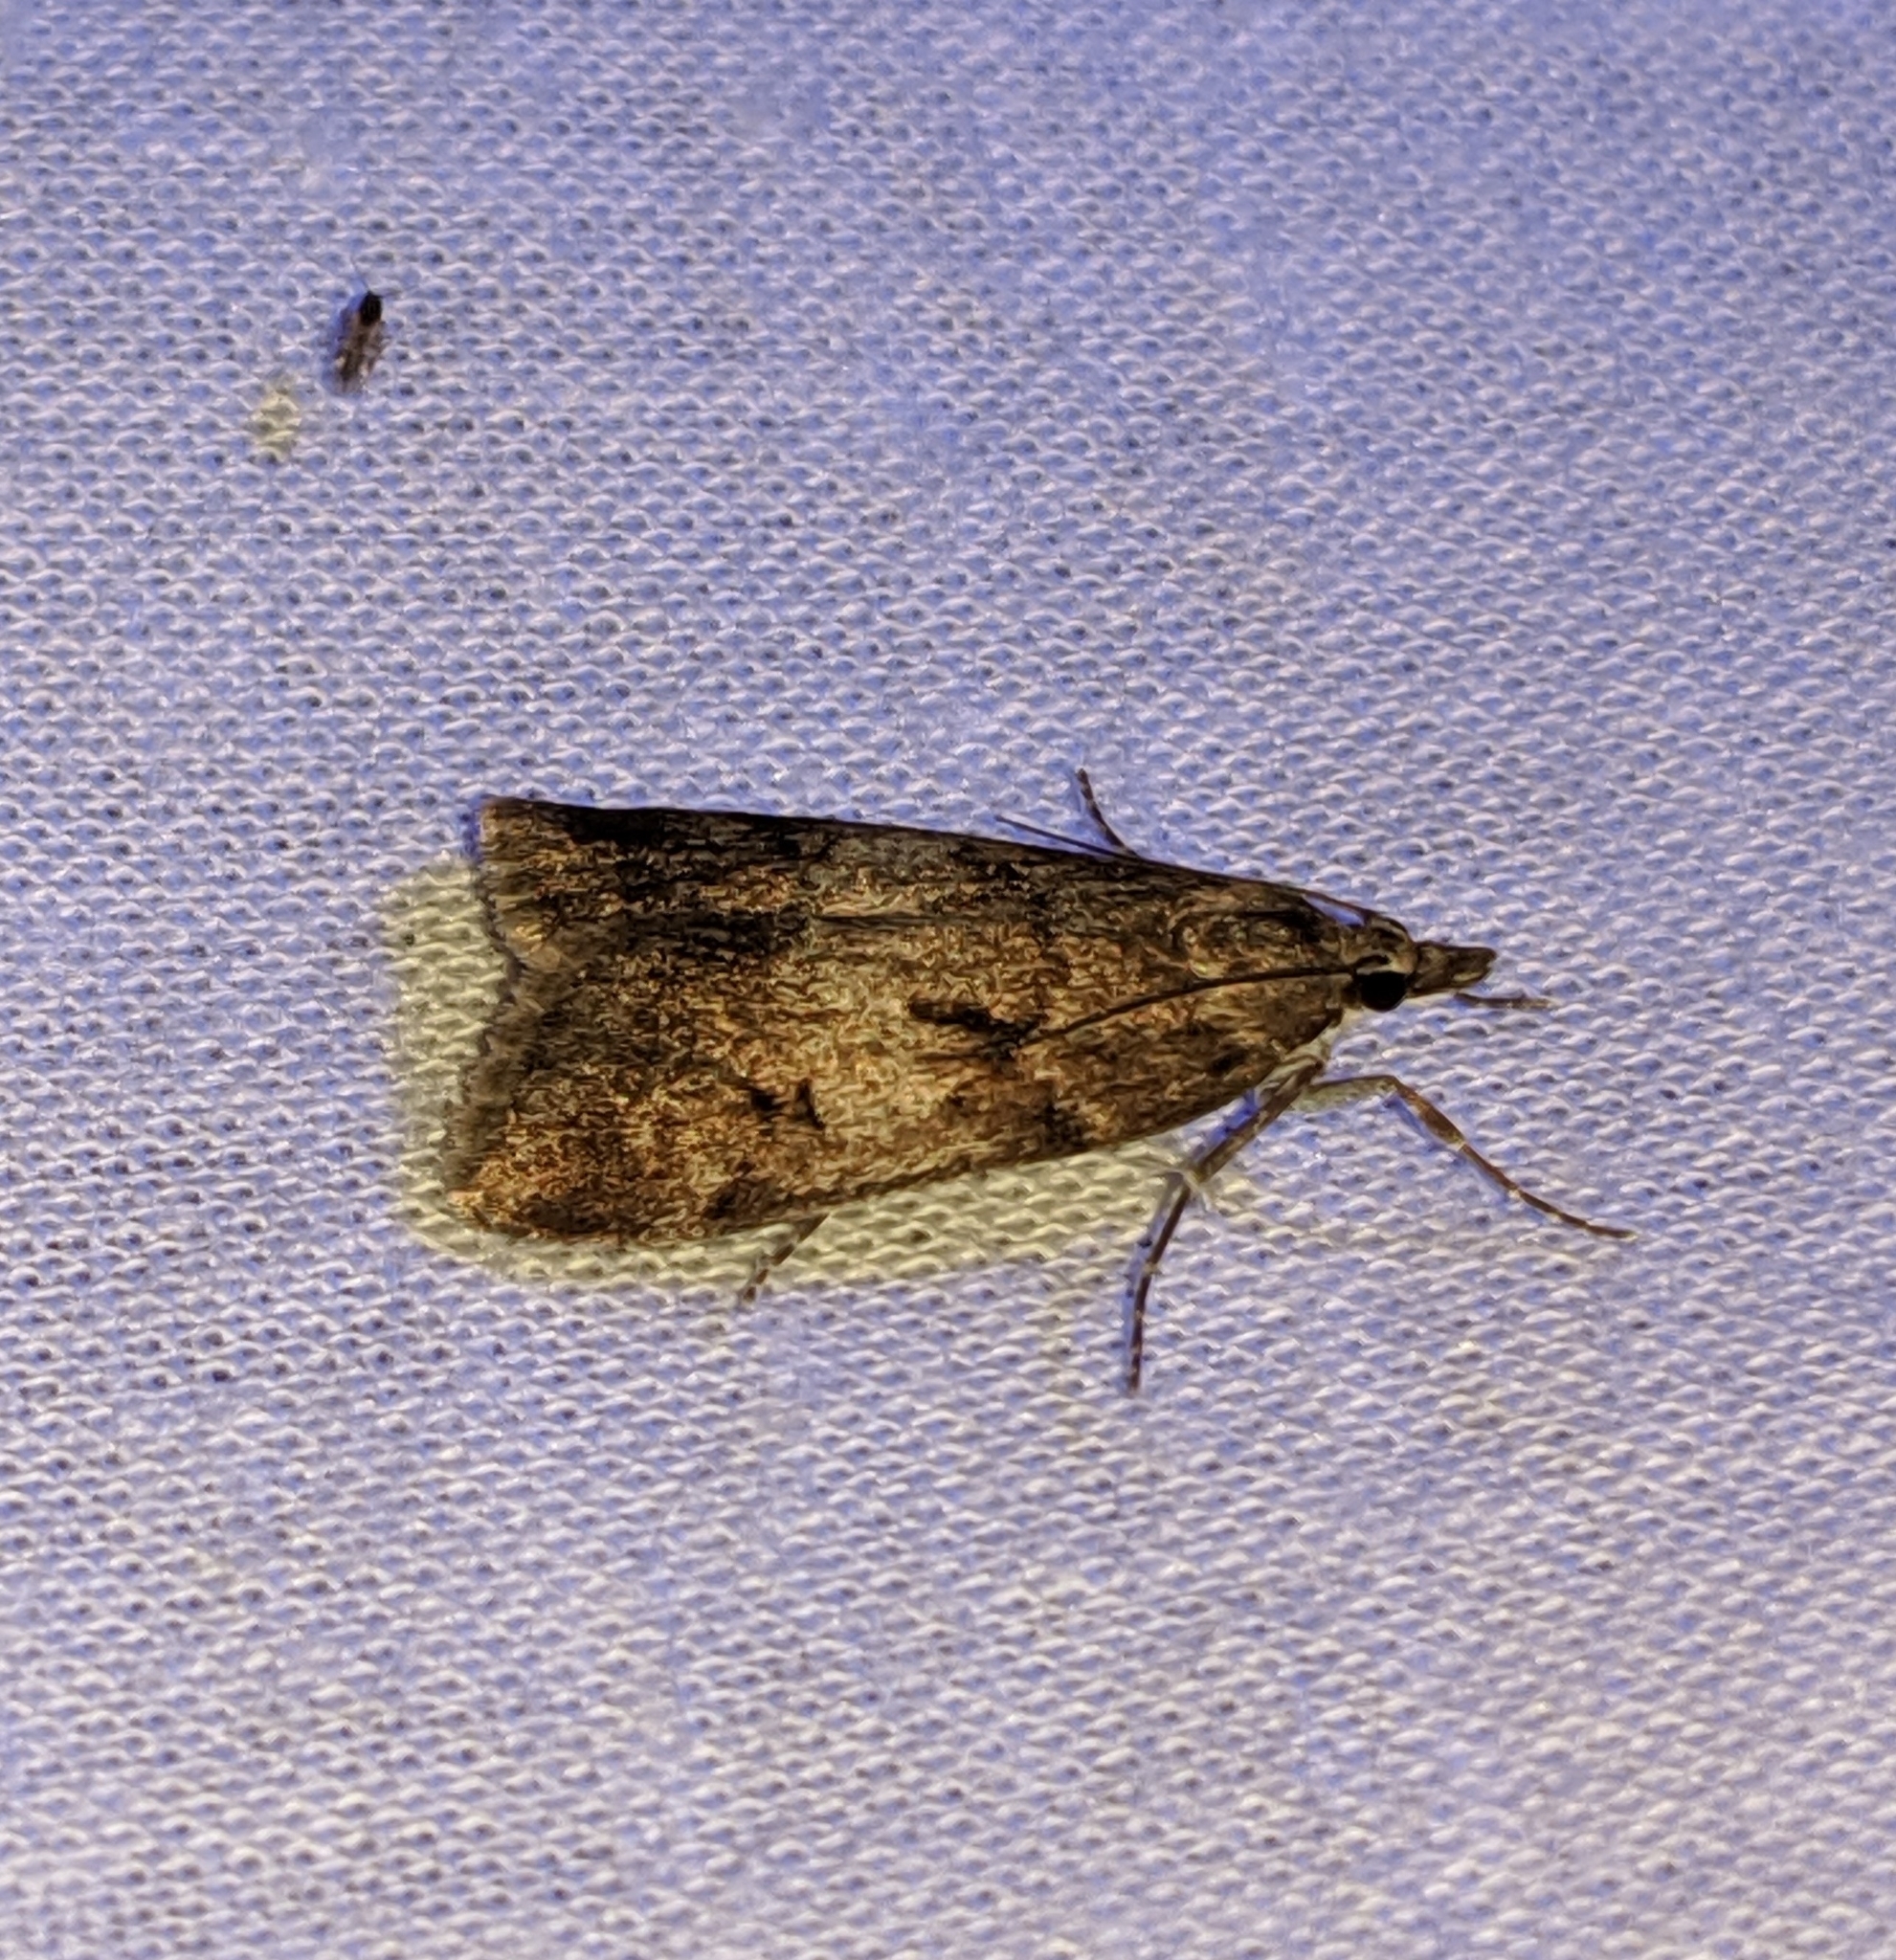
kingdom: Animalia
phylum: Arthropoda
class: Insecta
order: Lepidoptera
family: Crambidae
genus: Gesneria
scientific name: Gesneria centuriella
